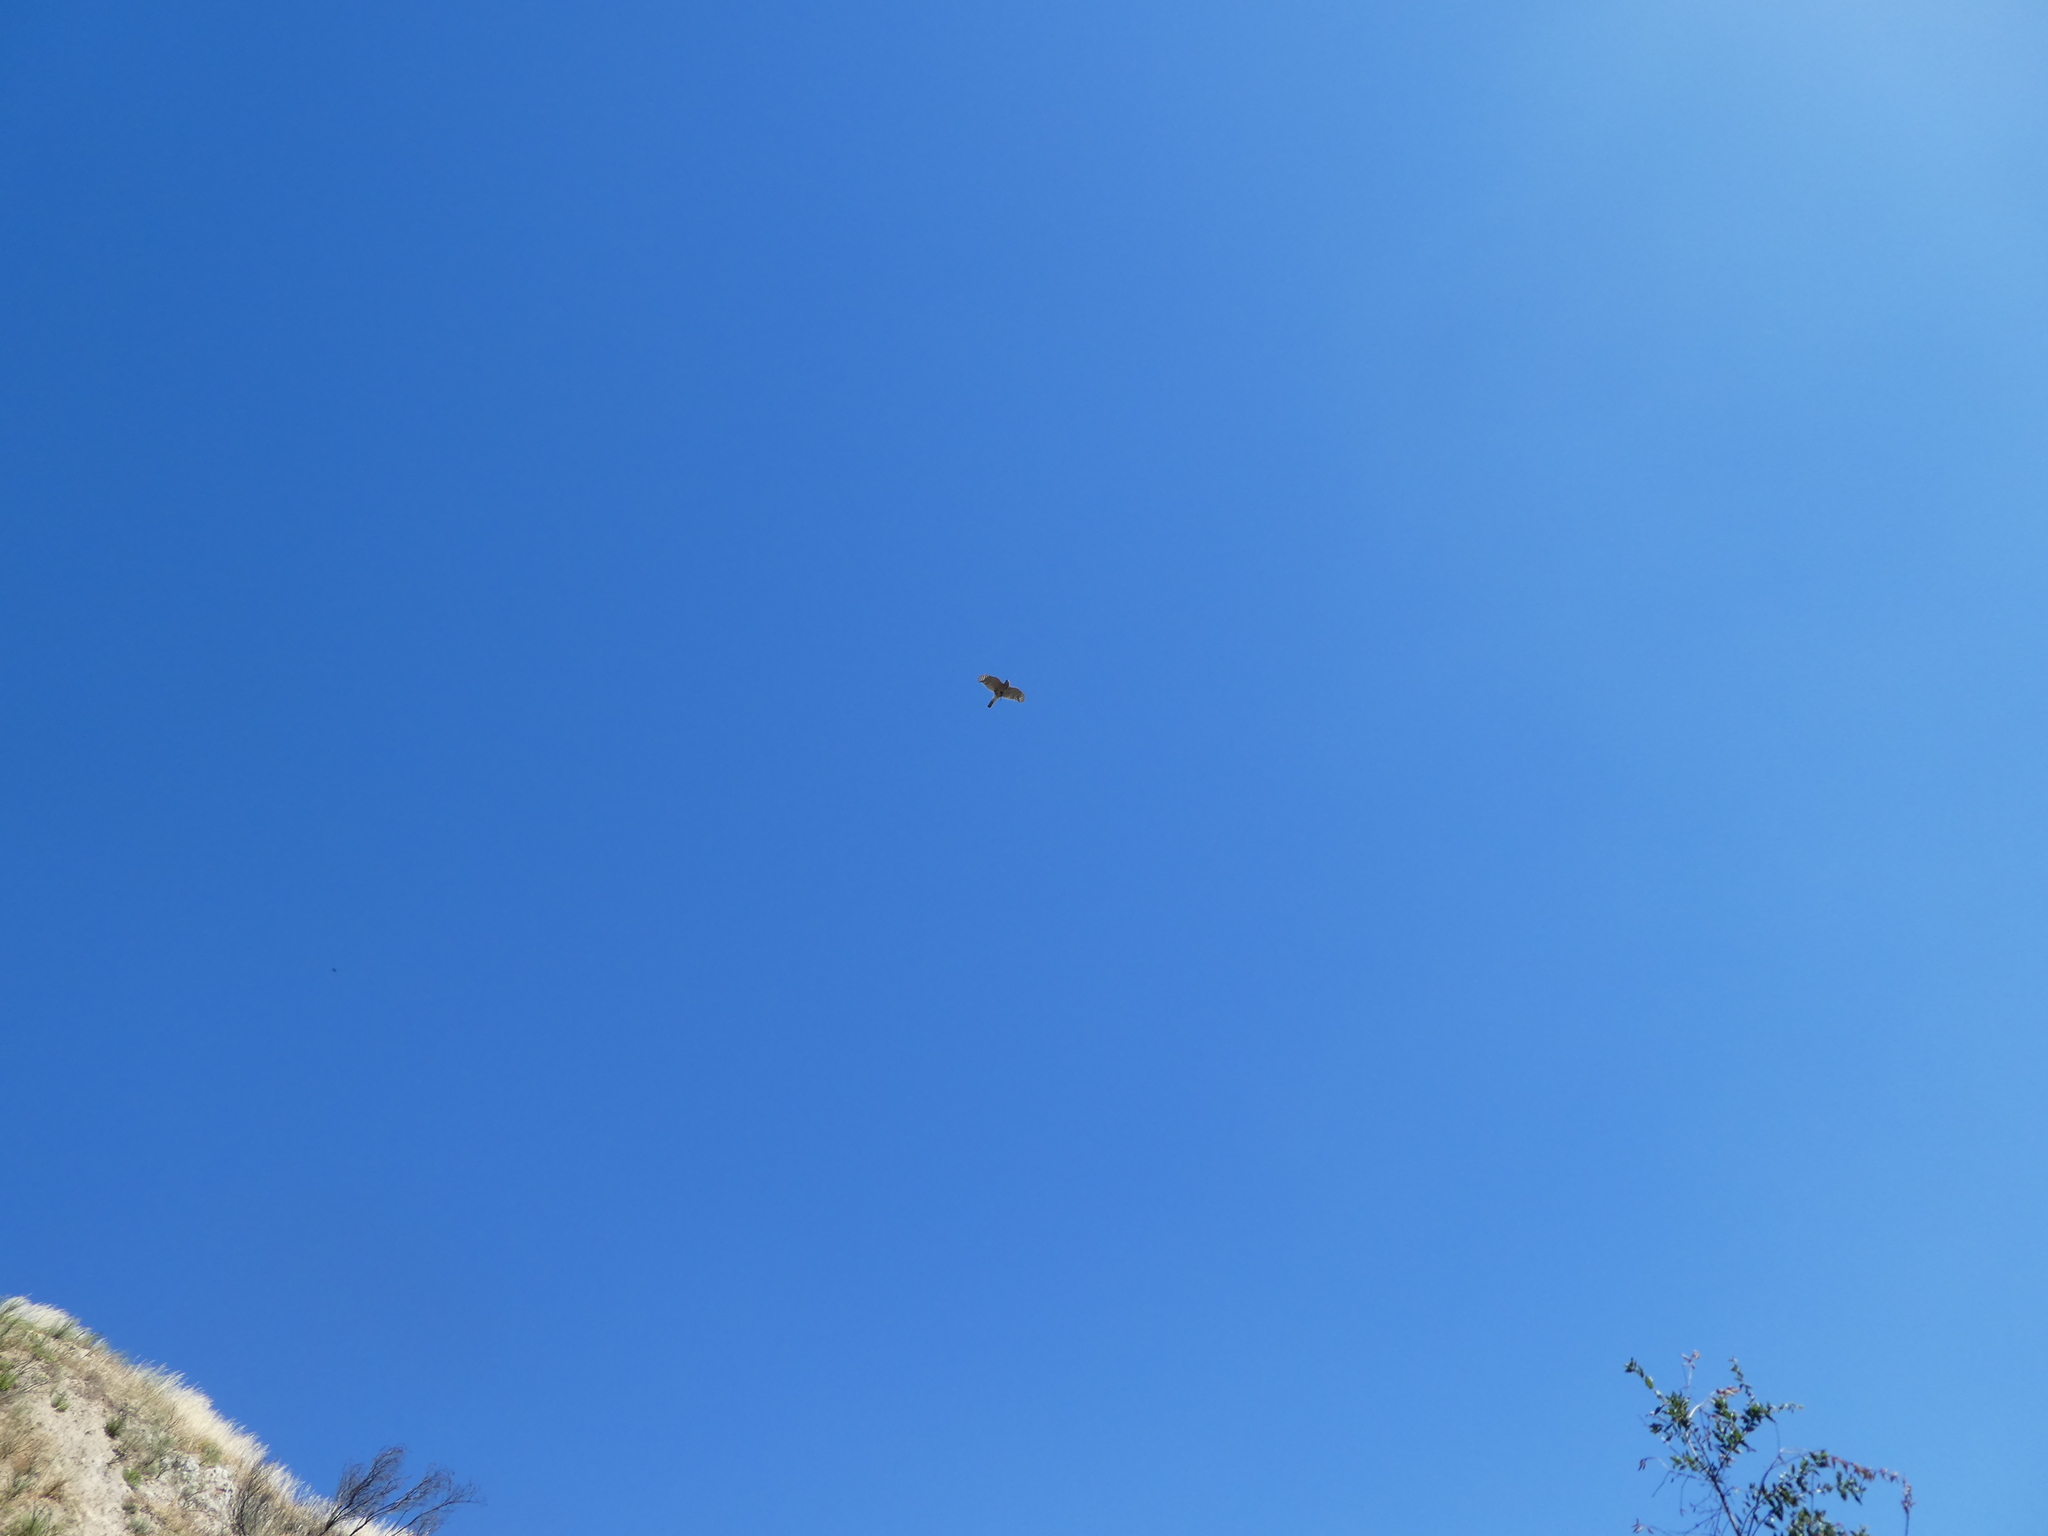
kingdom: Animalia
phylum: Chordata
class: Aves
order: Accipitriformes
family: Accipitridae
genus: Accipiter
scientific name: Accipiter cooperii
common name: Cooper's hawk
